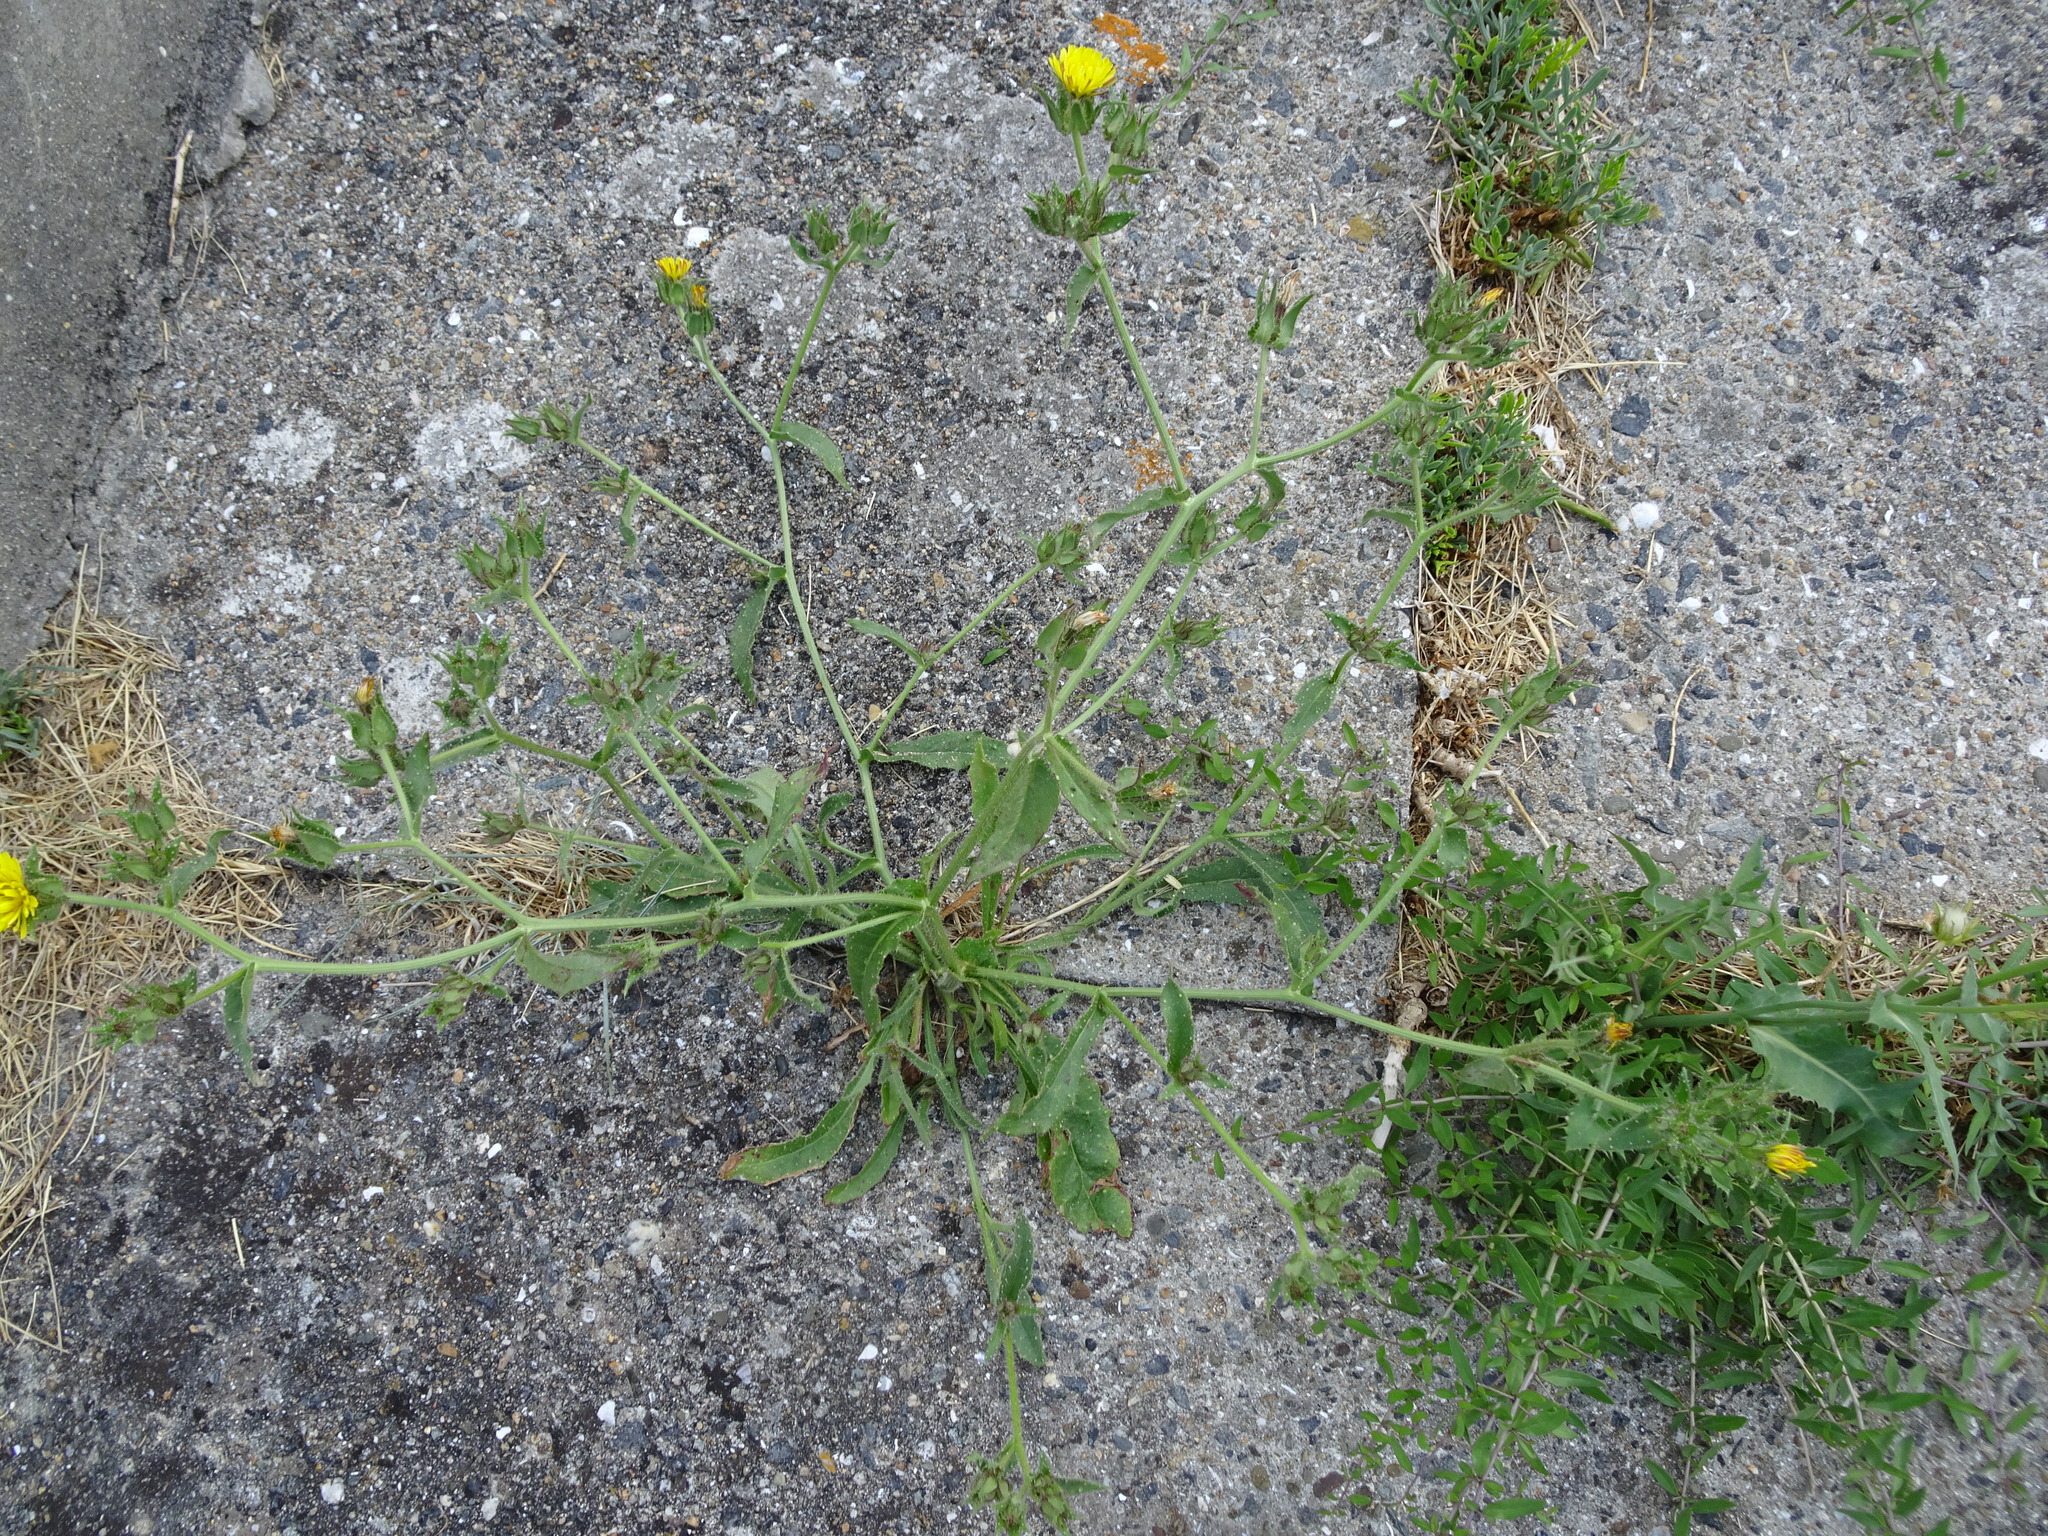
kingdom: Plantae
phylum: Tracheophyta
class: Magnoliopsida
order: Asterales
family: Asteraceae
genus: Helminthotheca
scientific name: Helminthotheca echioides
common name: Ox-tongue
